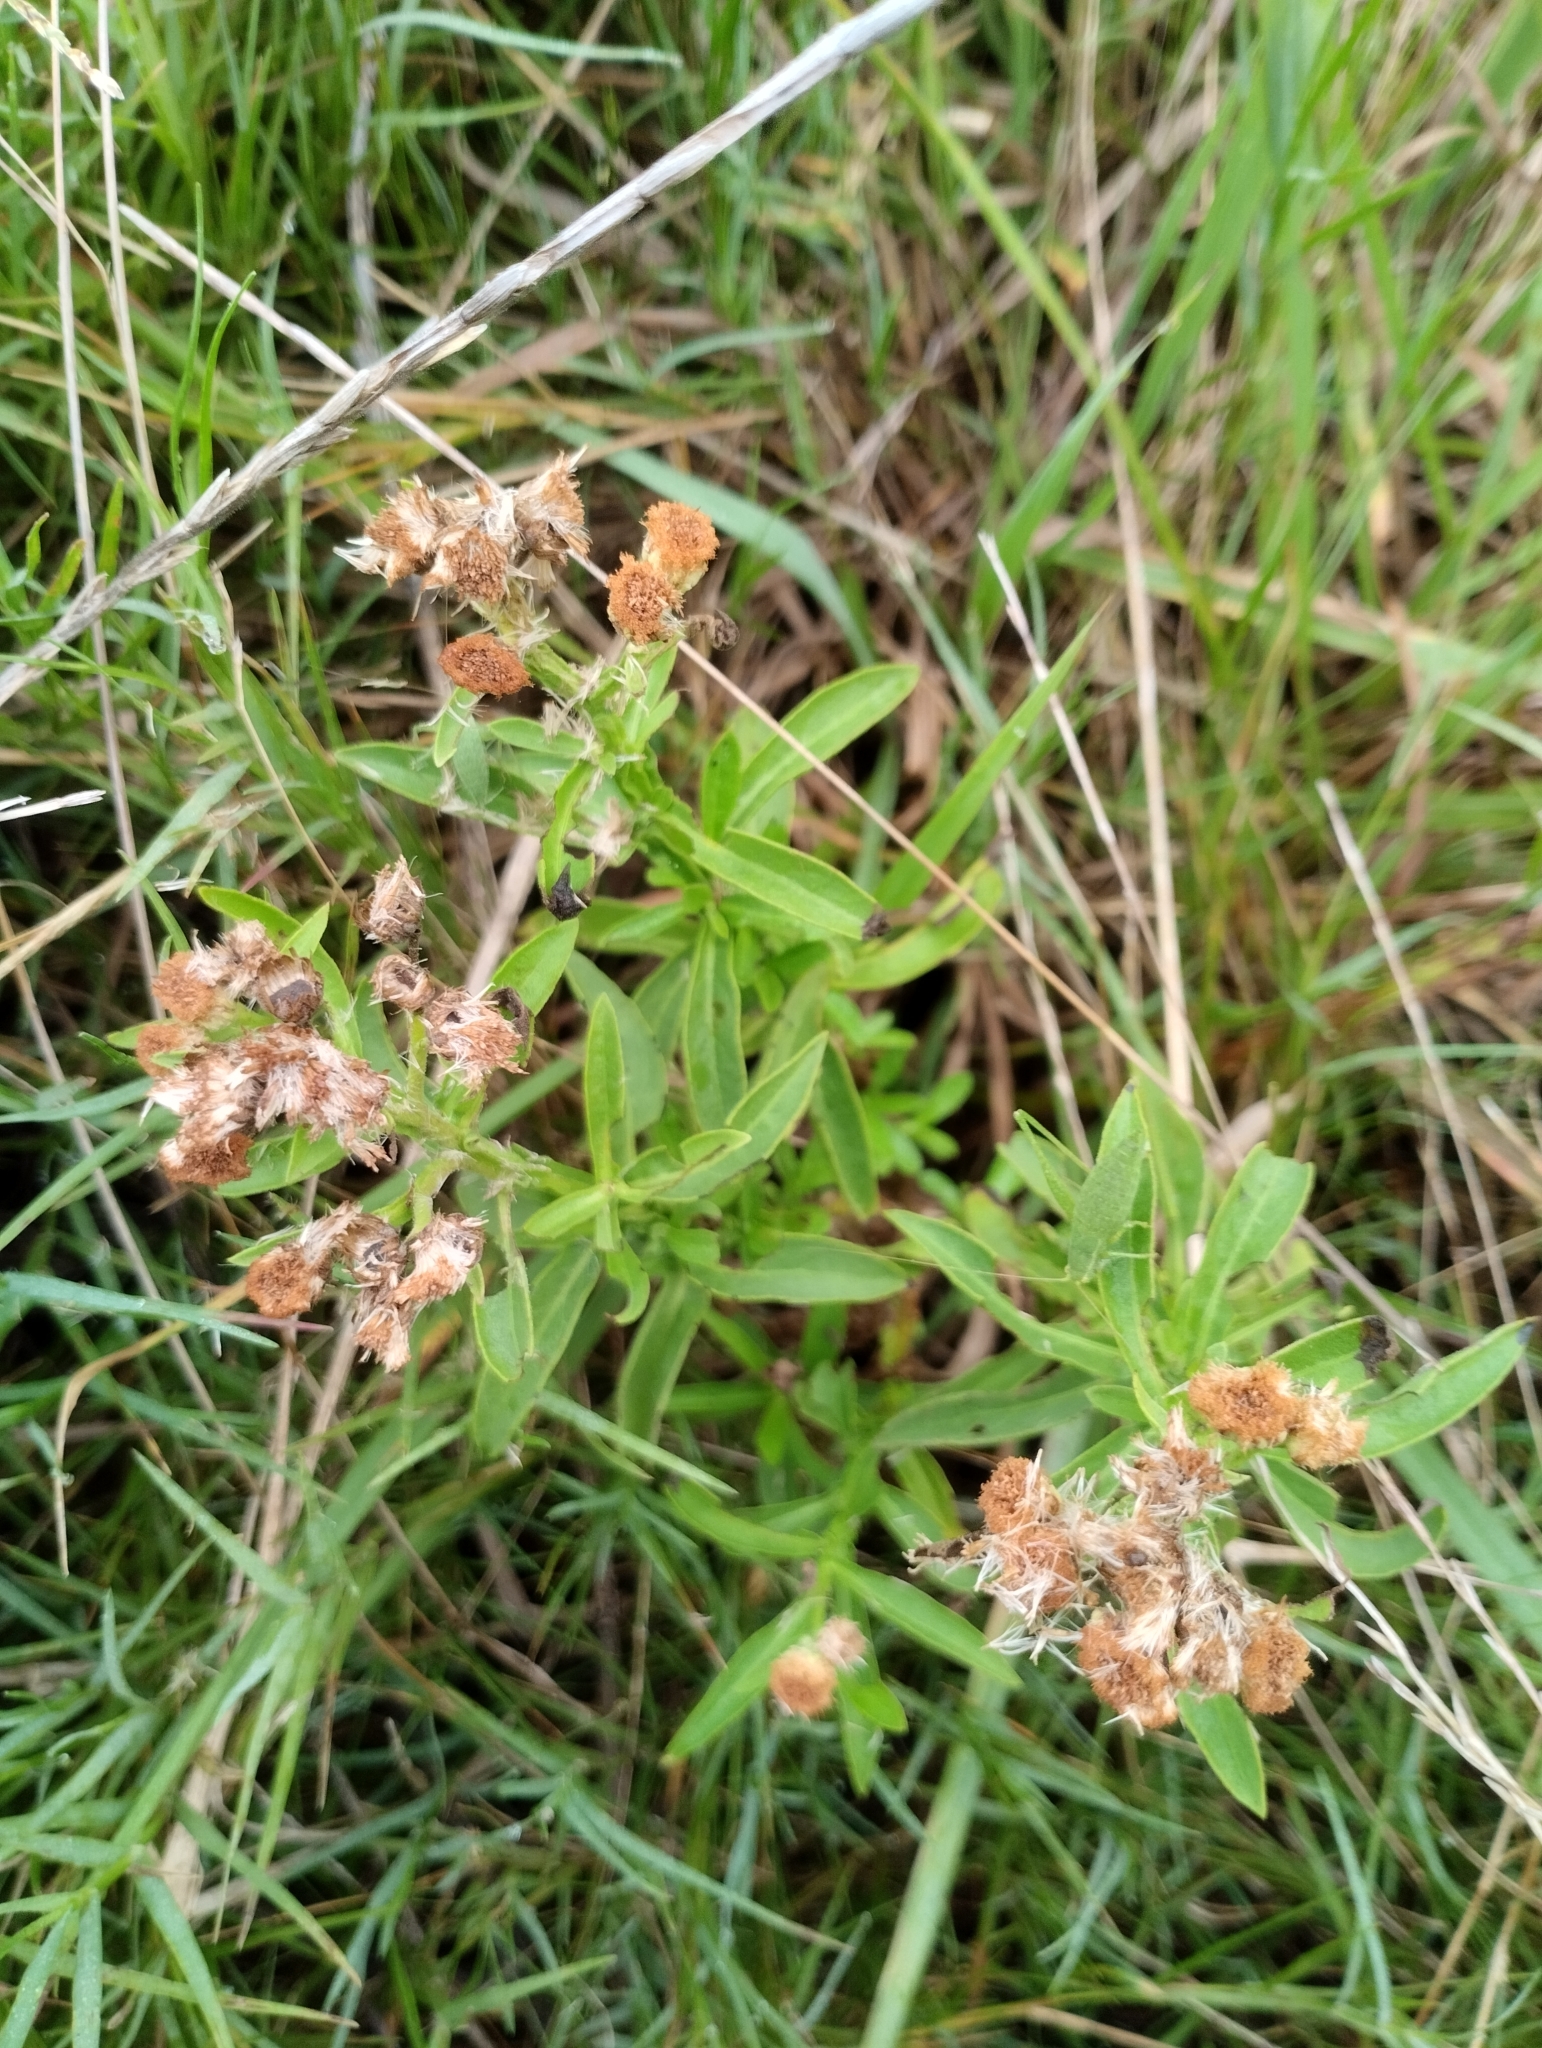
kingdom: Plantae
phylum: Tracheophyta
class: Magnoliopsida
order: Asterales
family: Asteraceae
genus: Pluchea
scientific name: Pluchea sagittalis
